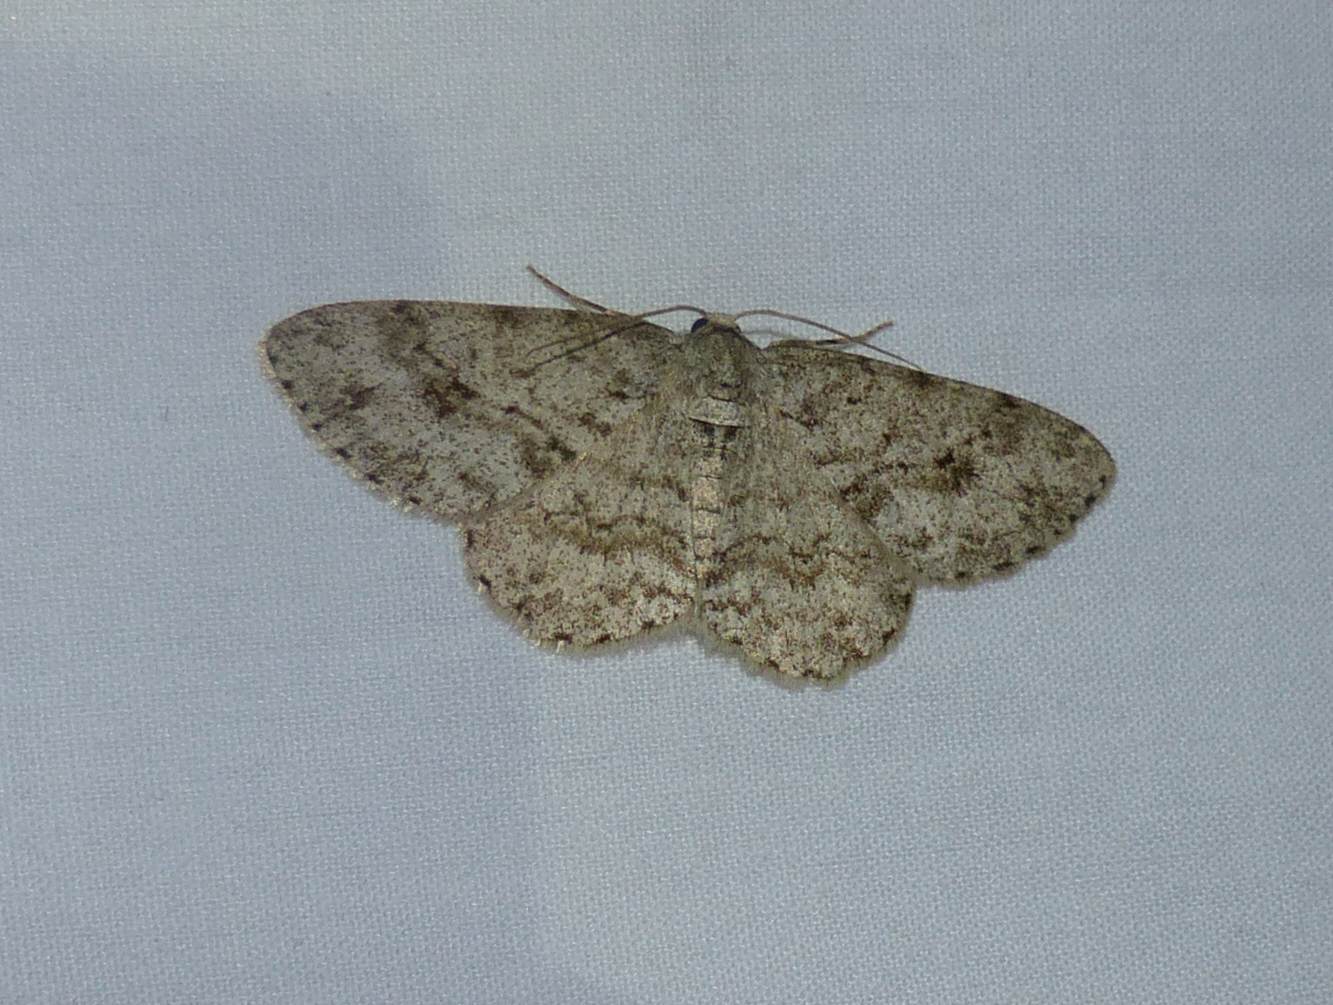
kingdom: Animalia
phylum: Arthropoda
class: Insecta
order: Lepidoptera
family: Geometridae
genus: Ectropis
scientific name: Ectropis crepuscularia
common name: Engrailed
